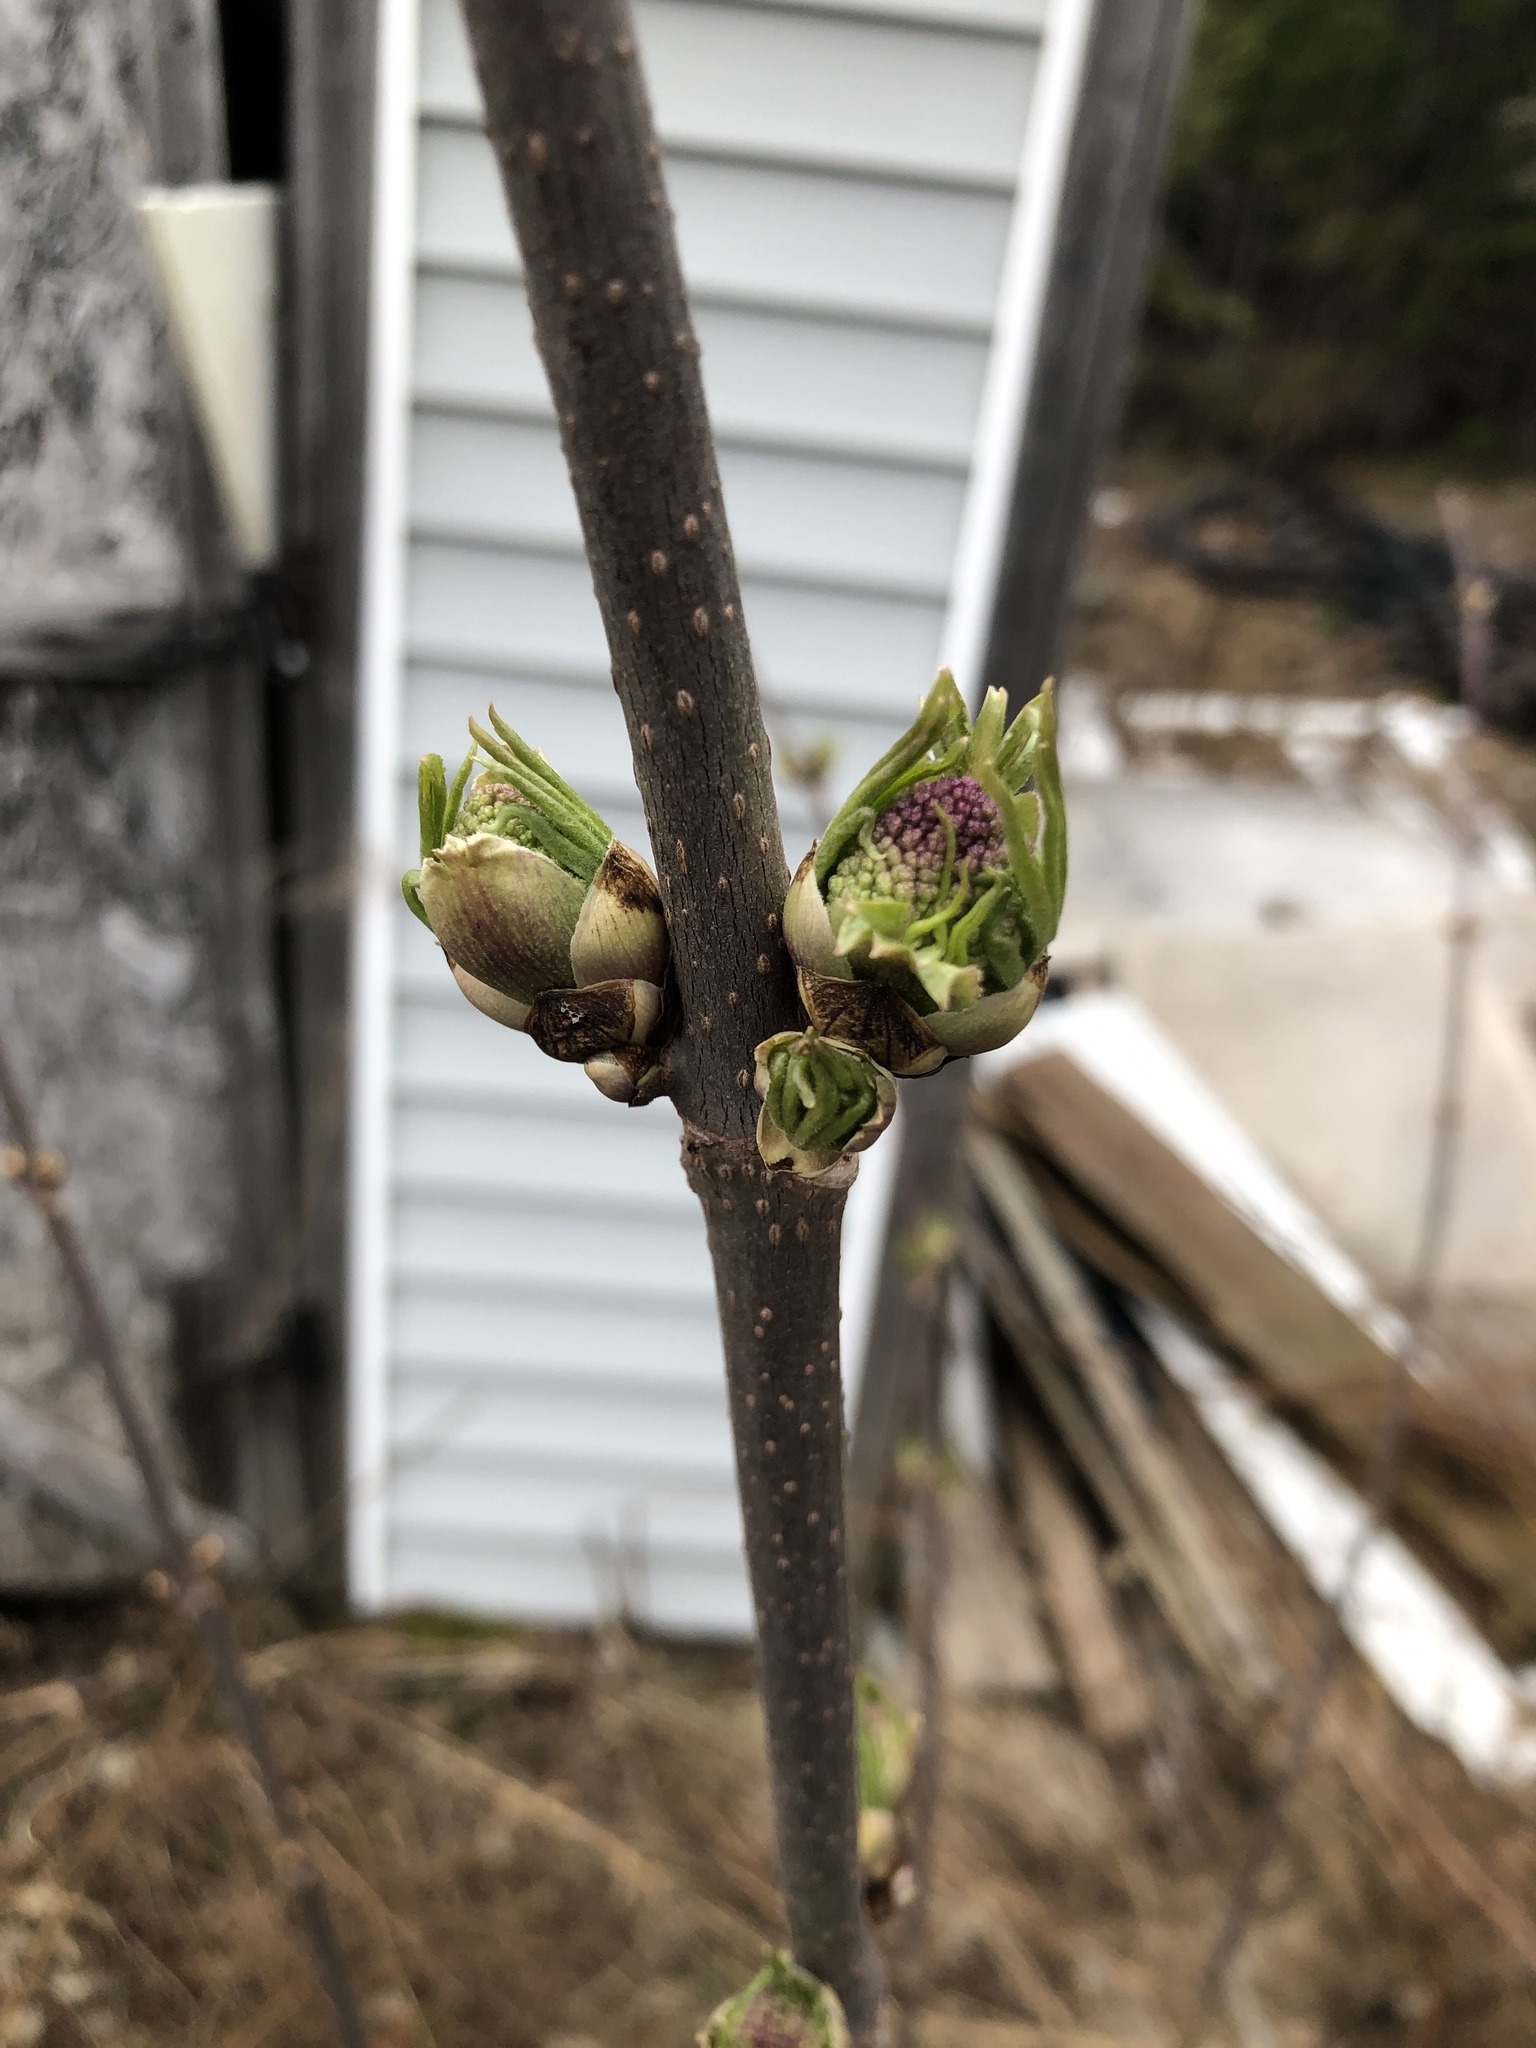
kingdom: Plantae
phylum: Tracheophyta
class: Magnoliopsida
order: Dipsacales
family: Viburnaceae
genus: Sambucus
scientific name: Sambucus racemosa
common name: Red-berried elder
